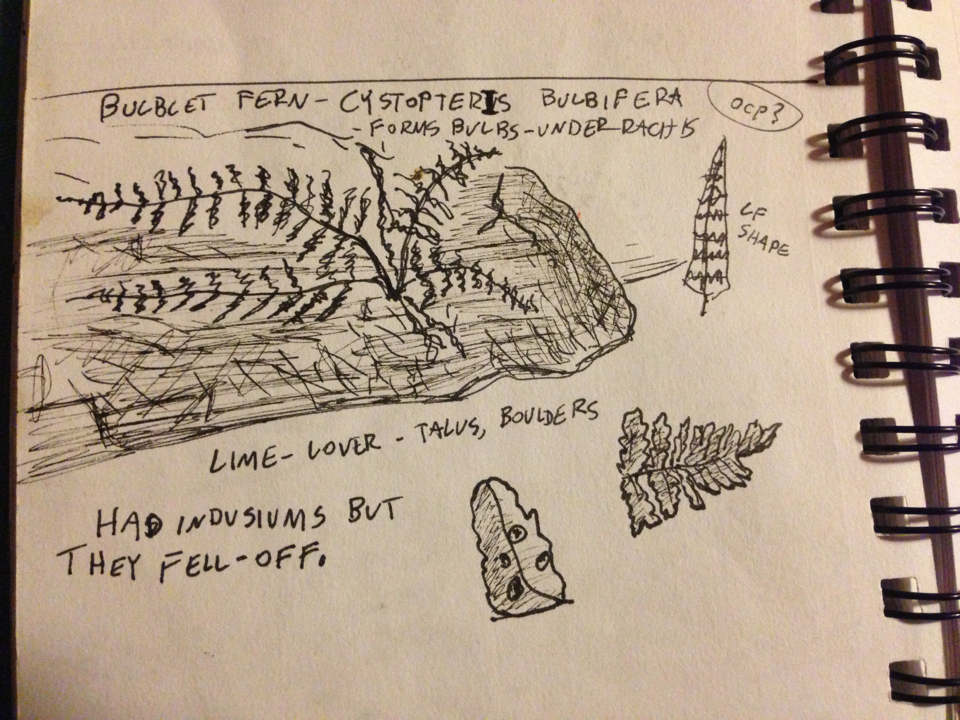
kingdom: Plantae
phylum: Tracheophyta
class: Polypodiopsida
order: Polypodiales
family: Cystopteridaceae
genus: Cystopteris
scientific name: Cystopteris bulbifera
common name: Bulblet bladder fern
